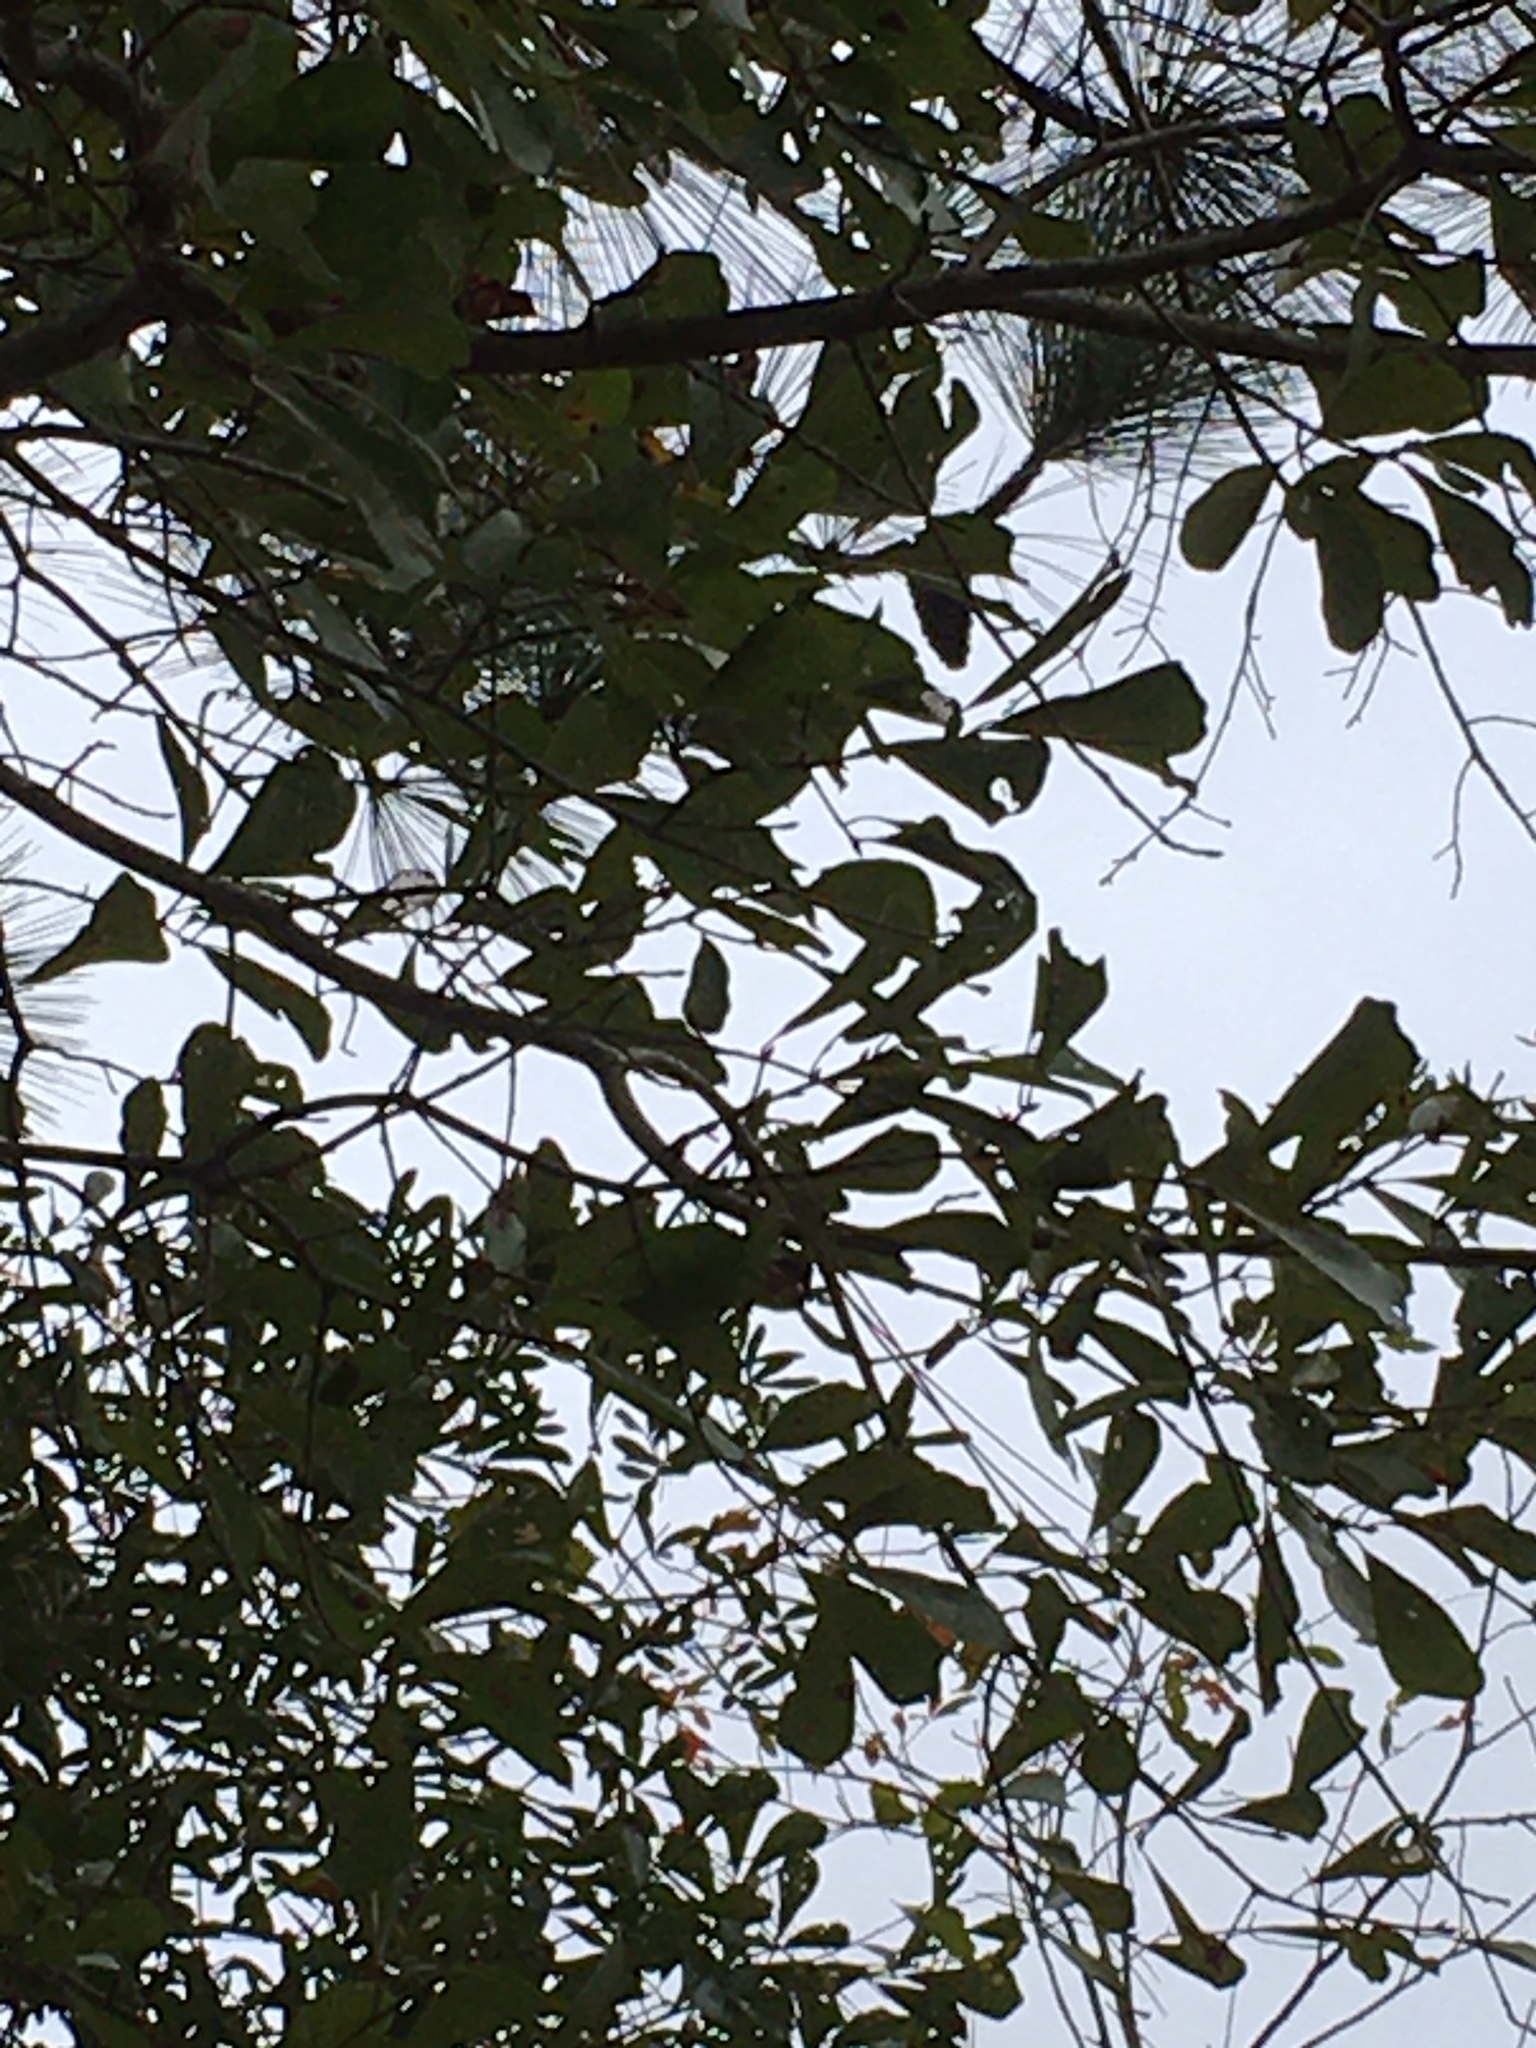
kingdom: Plantae
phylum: Tracheophyta
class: Magnoliopsida
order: Fagales
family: Fagaceae
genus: Quercus
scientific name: Quercus nigra
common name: Water oak
